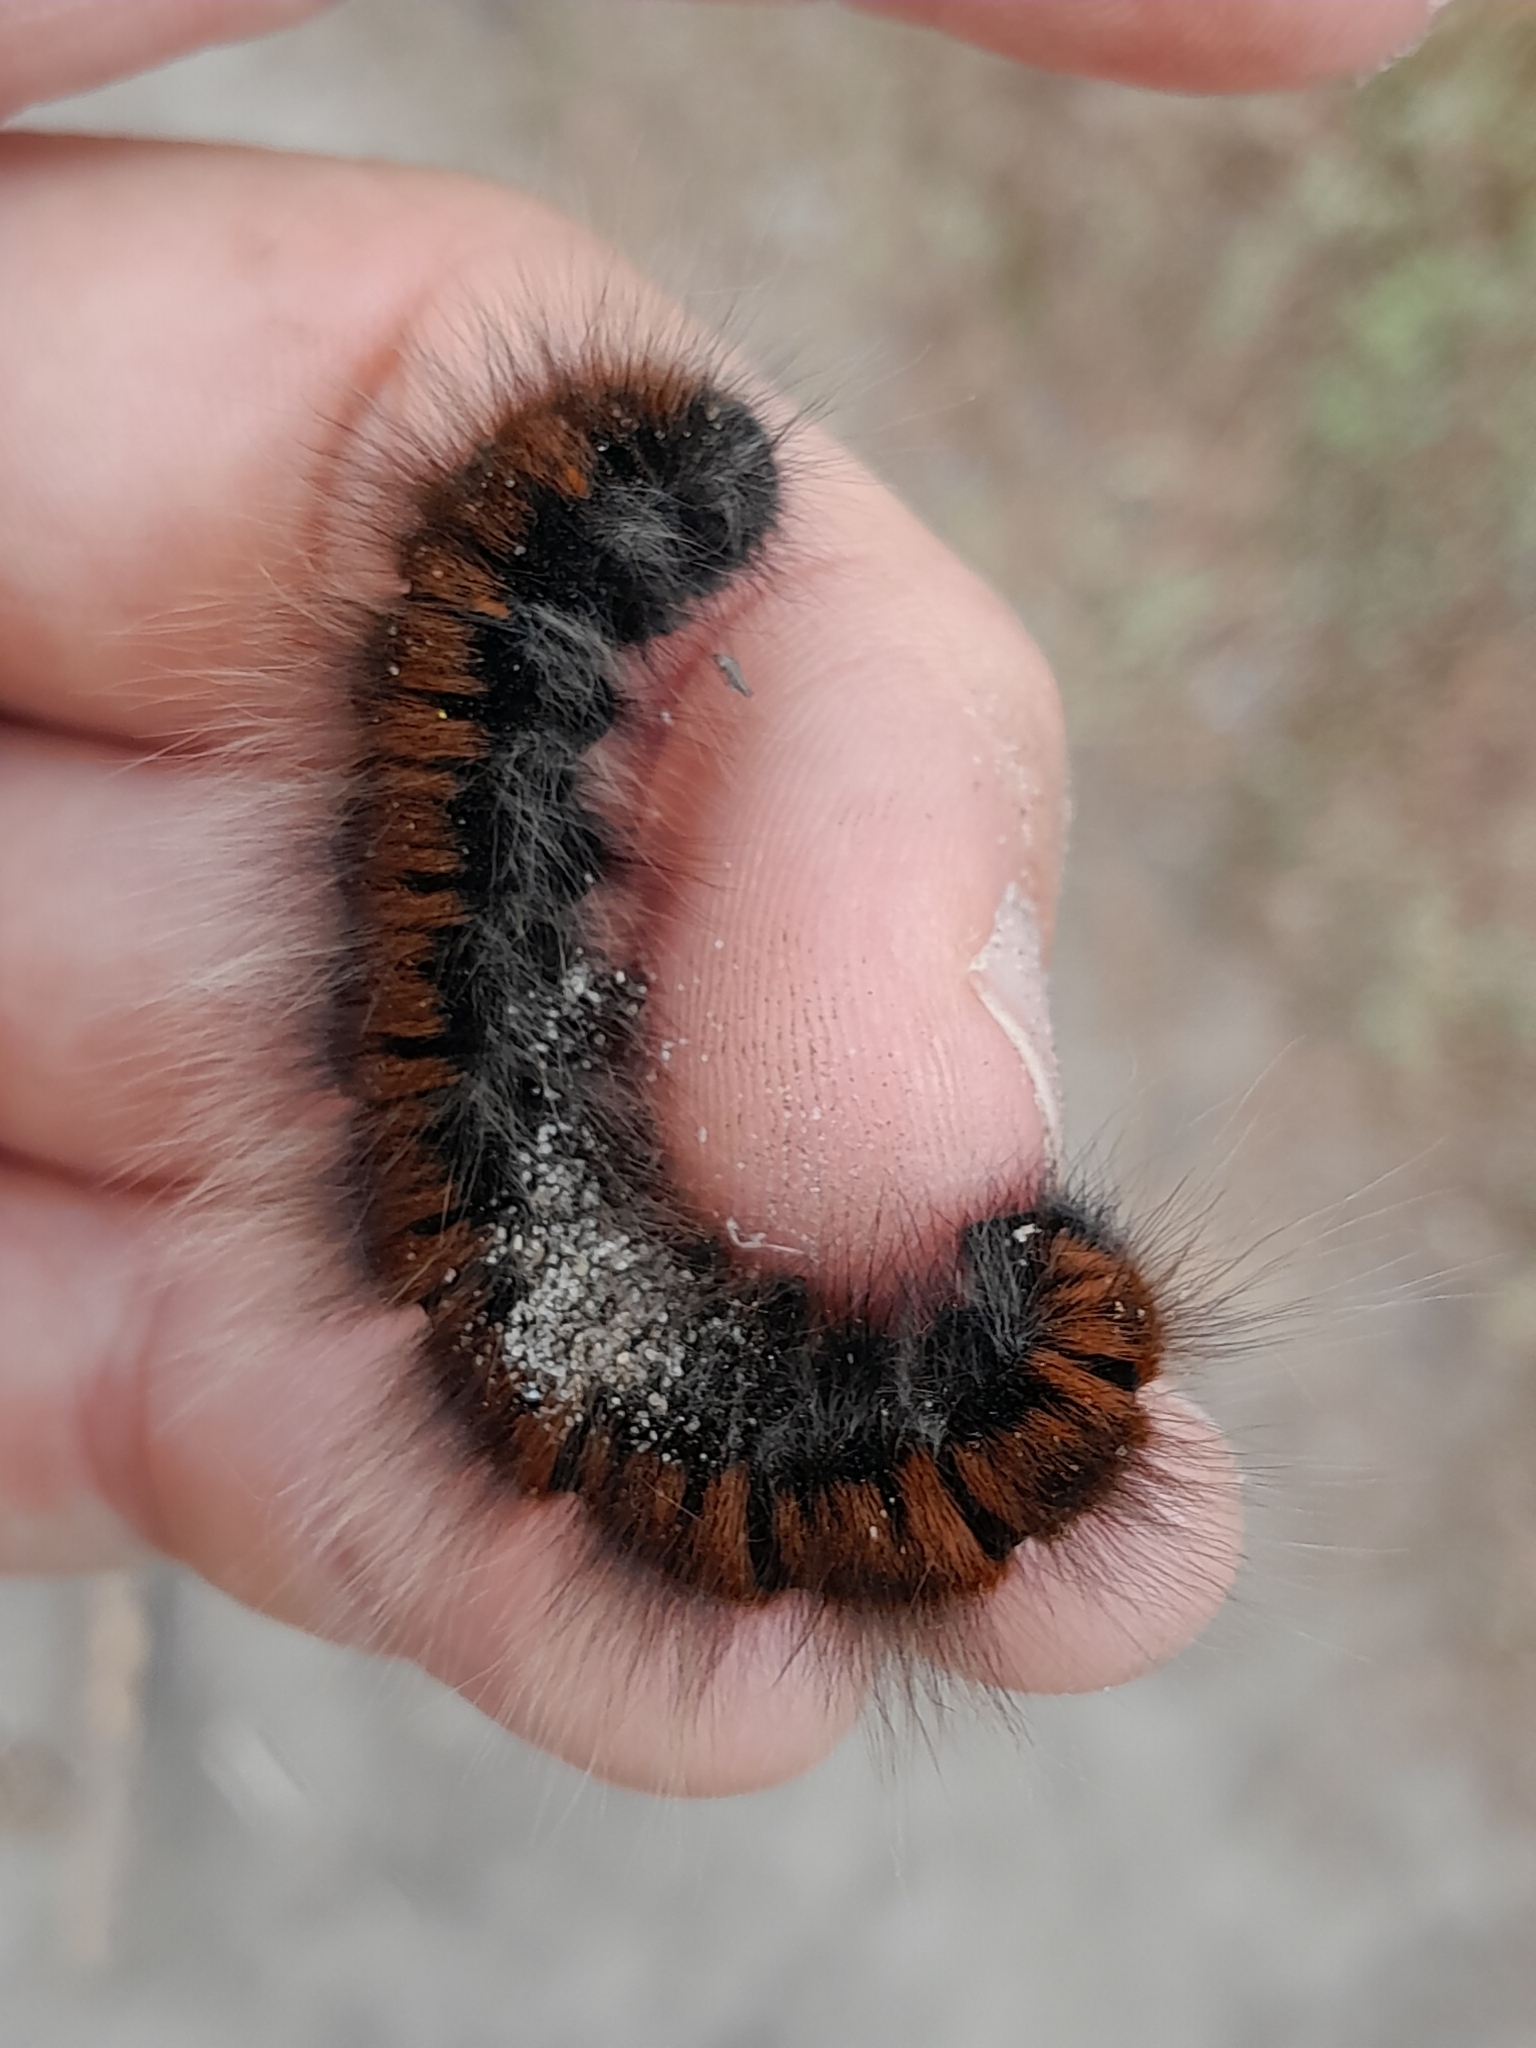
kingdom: Animalia
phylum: Arthropoda
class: Insecta
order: Lepidoptera
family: Lasiocampidae
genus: Macrothylacia
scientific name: Macrothylacia rubi
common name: Fox moth
